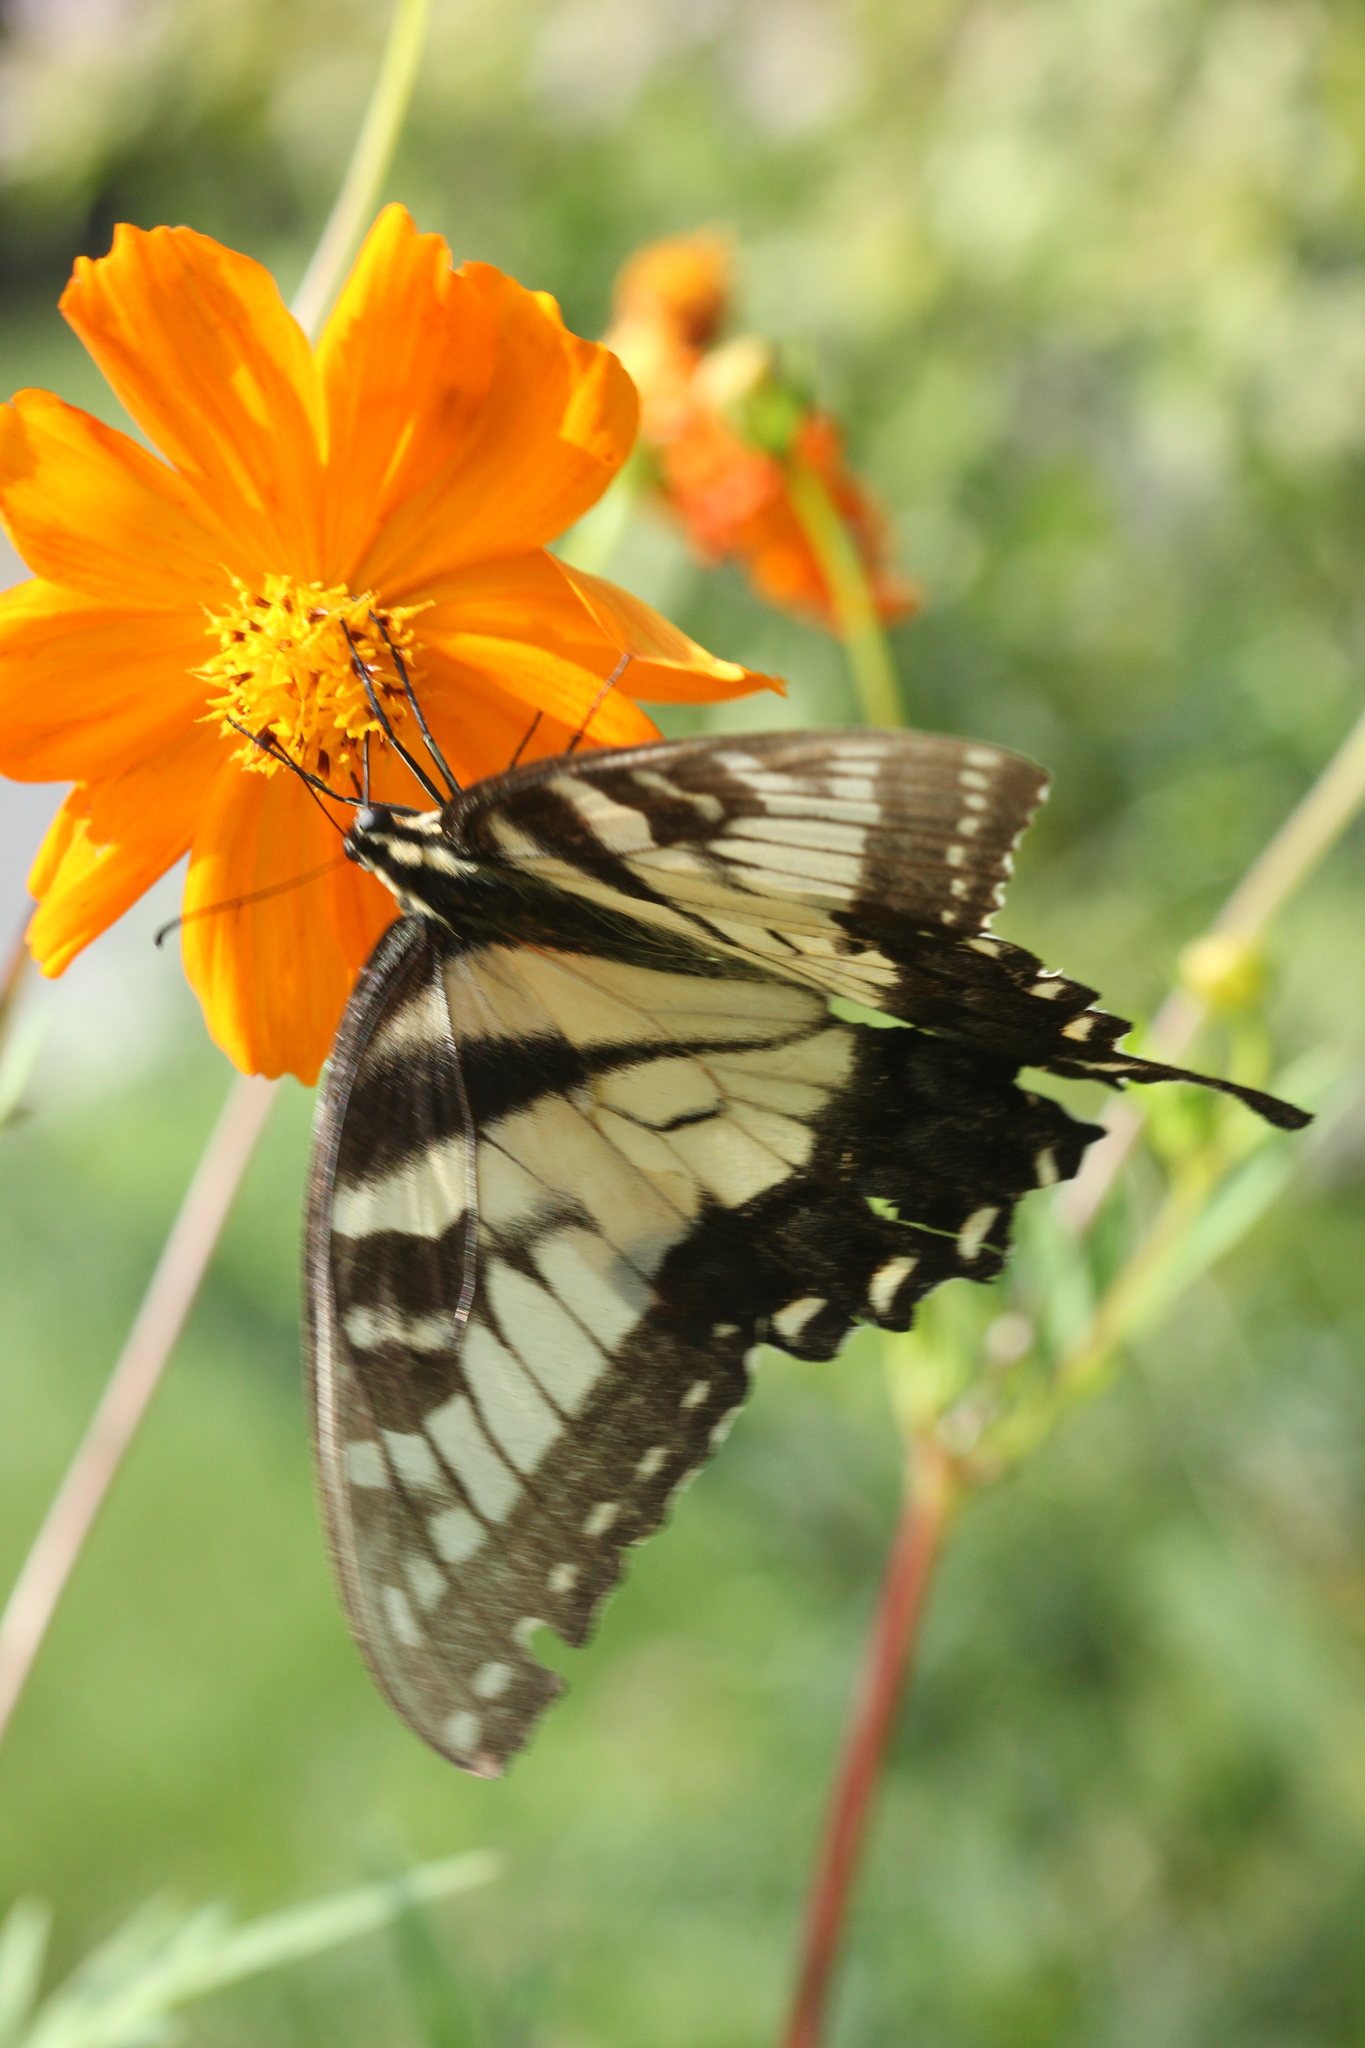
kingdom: Animalia
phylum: Arthropoda
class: Insecta
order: Lepidoptera
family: Papilionidae
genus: Papilio
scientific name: Papilio glaucus
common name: Tiger swallowtail
